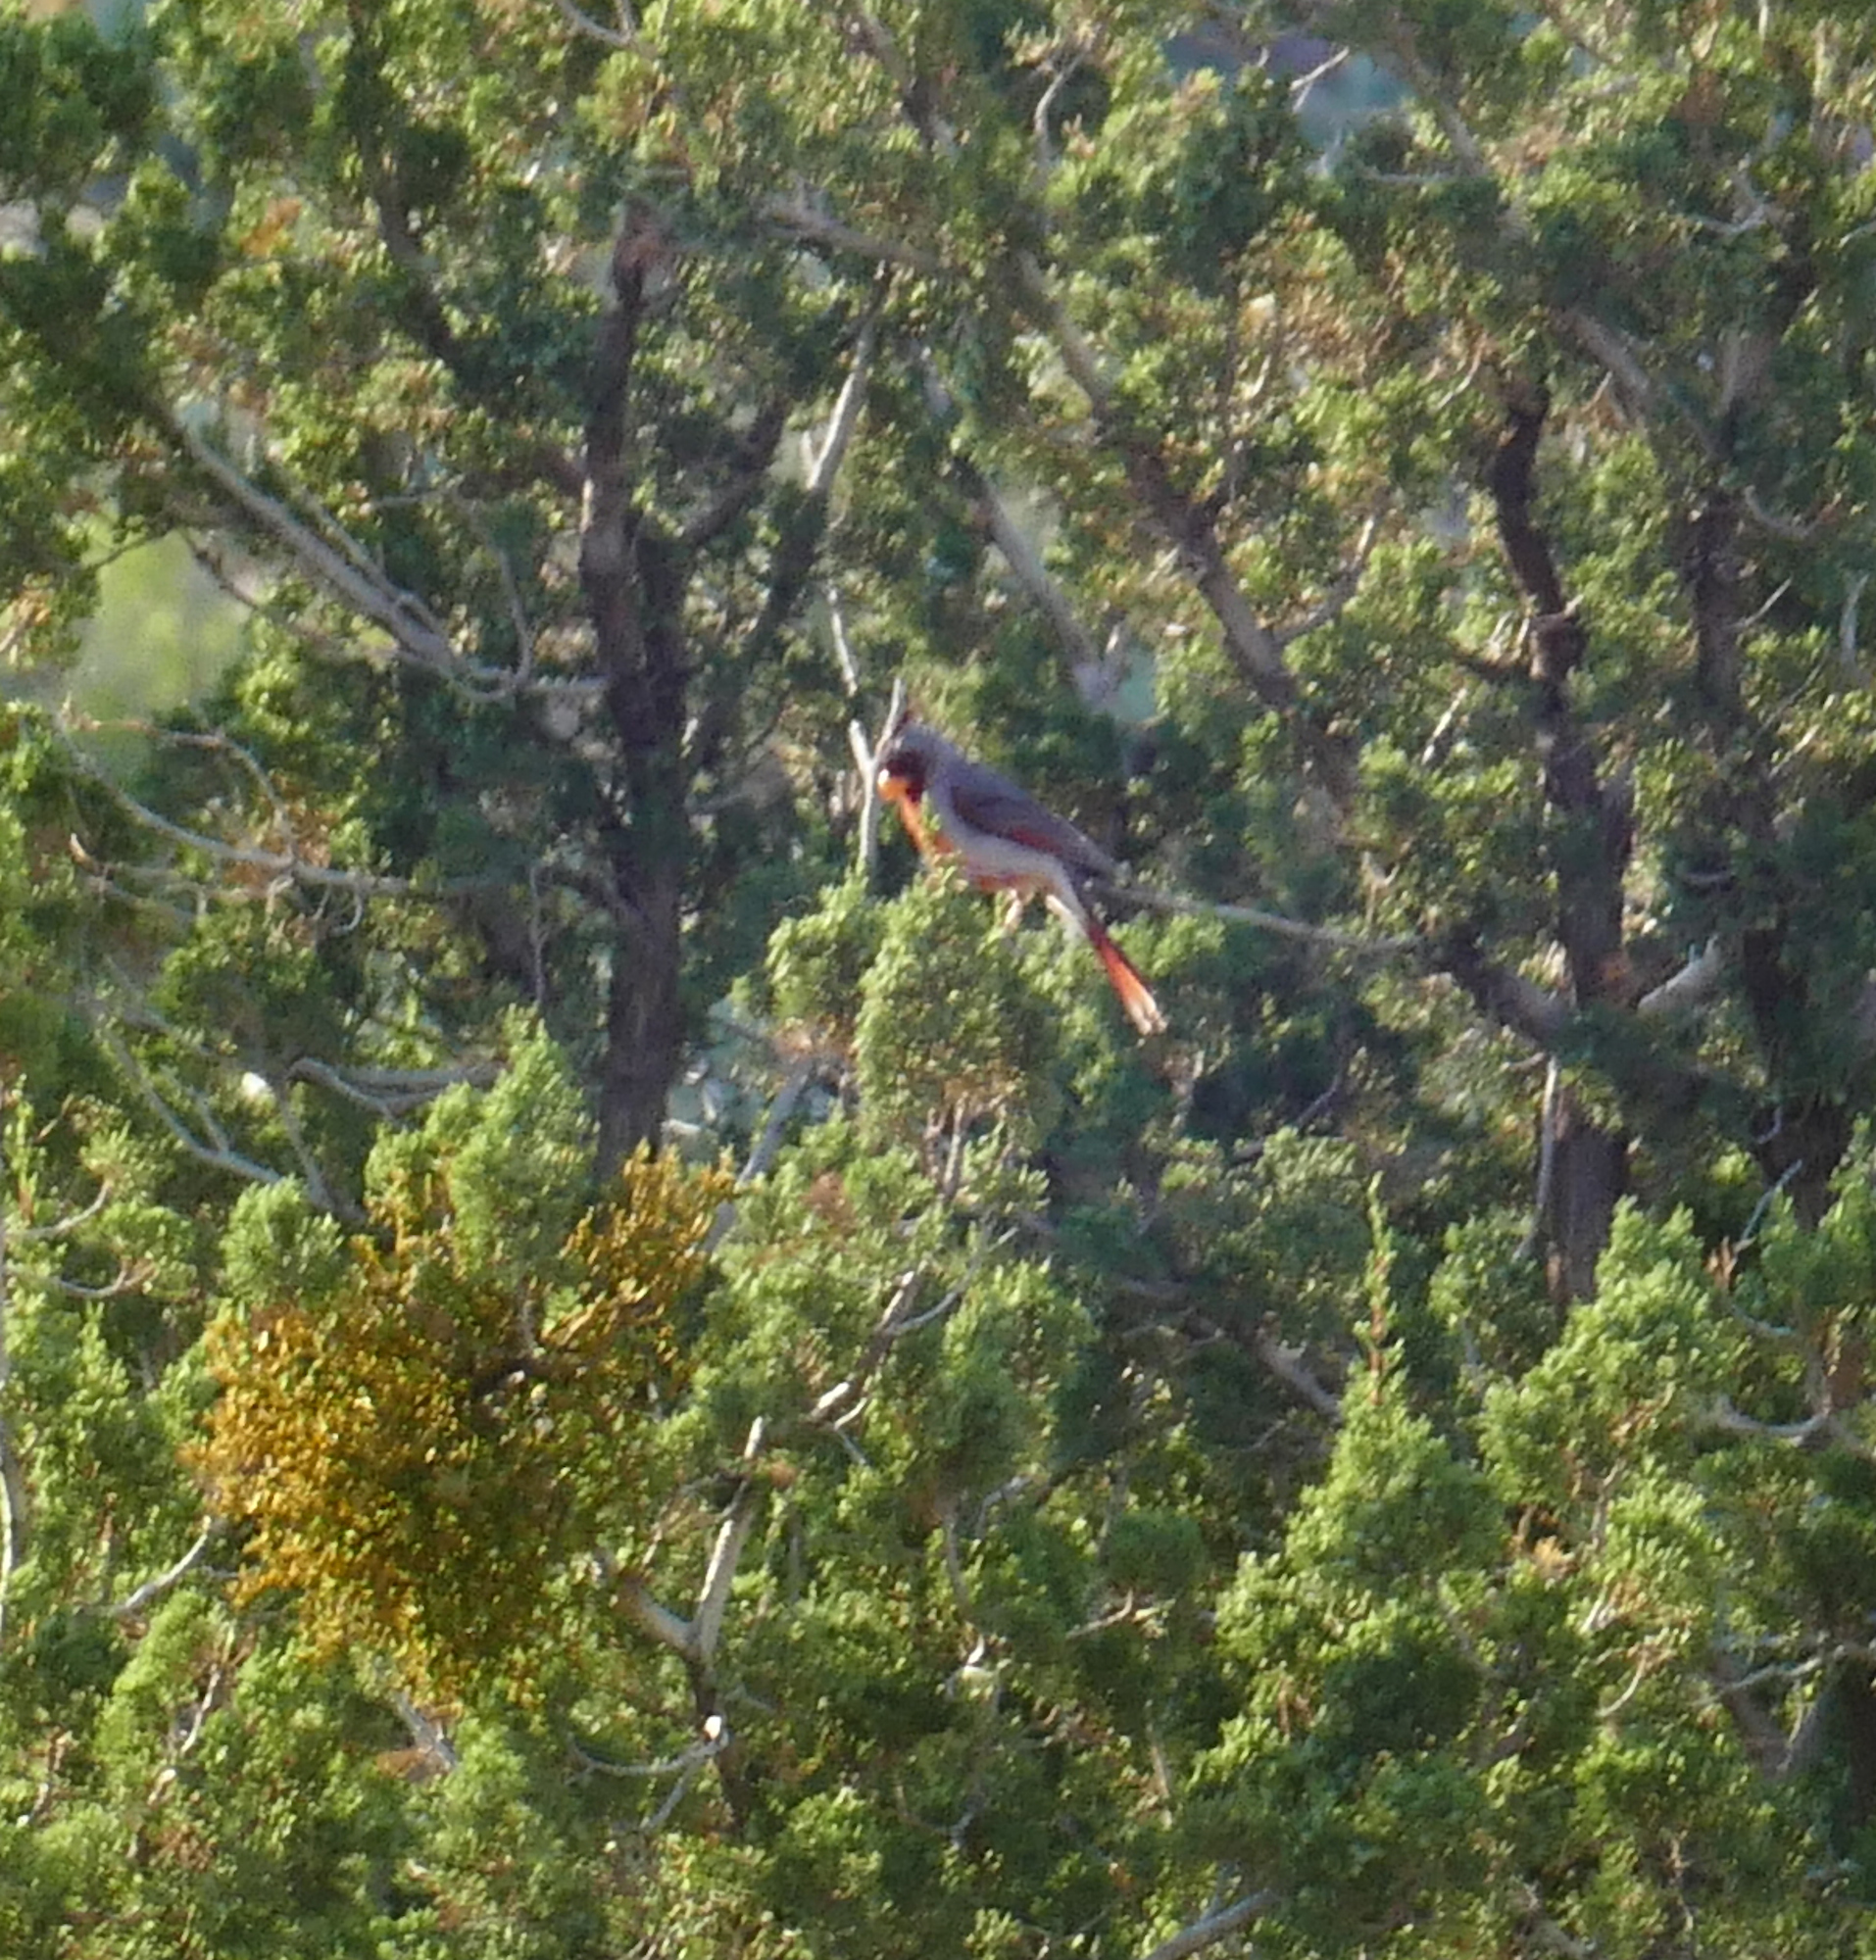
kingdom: Animalia
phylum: Chordata
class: Aves
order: Passeriformes
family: Cardinalidae
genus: Cardinalis
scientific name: Cardinalis sinuatus
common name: Pyrrhuloxia
